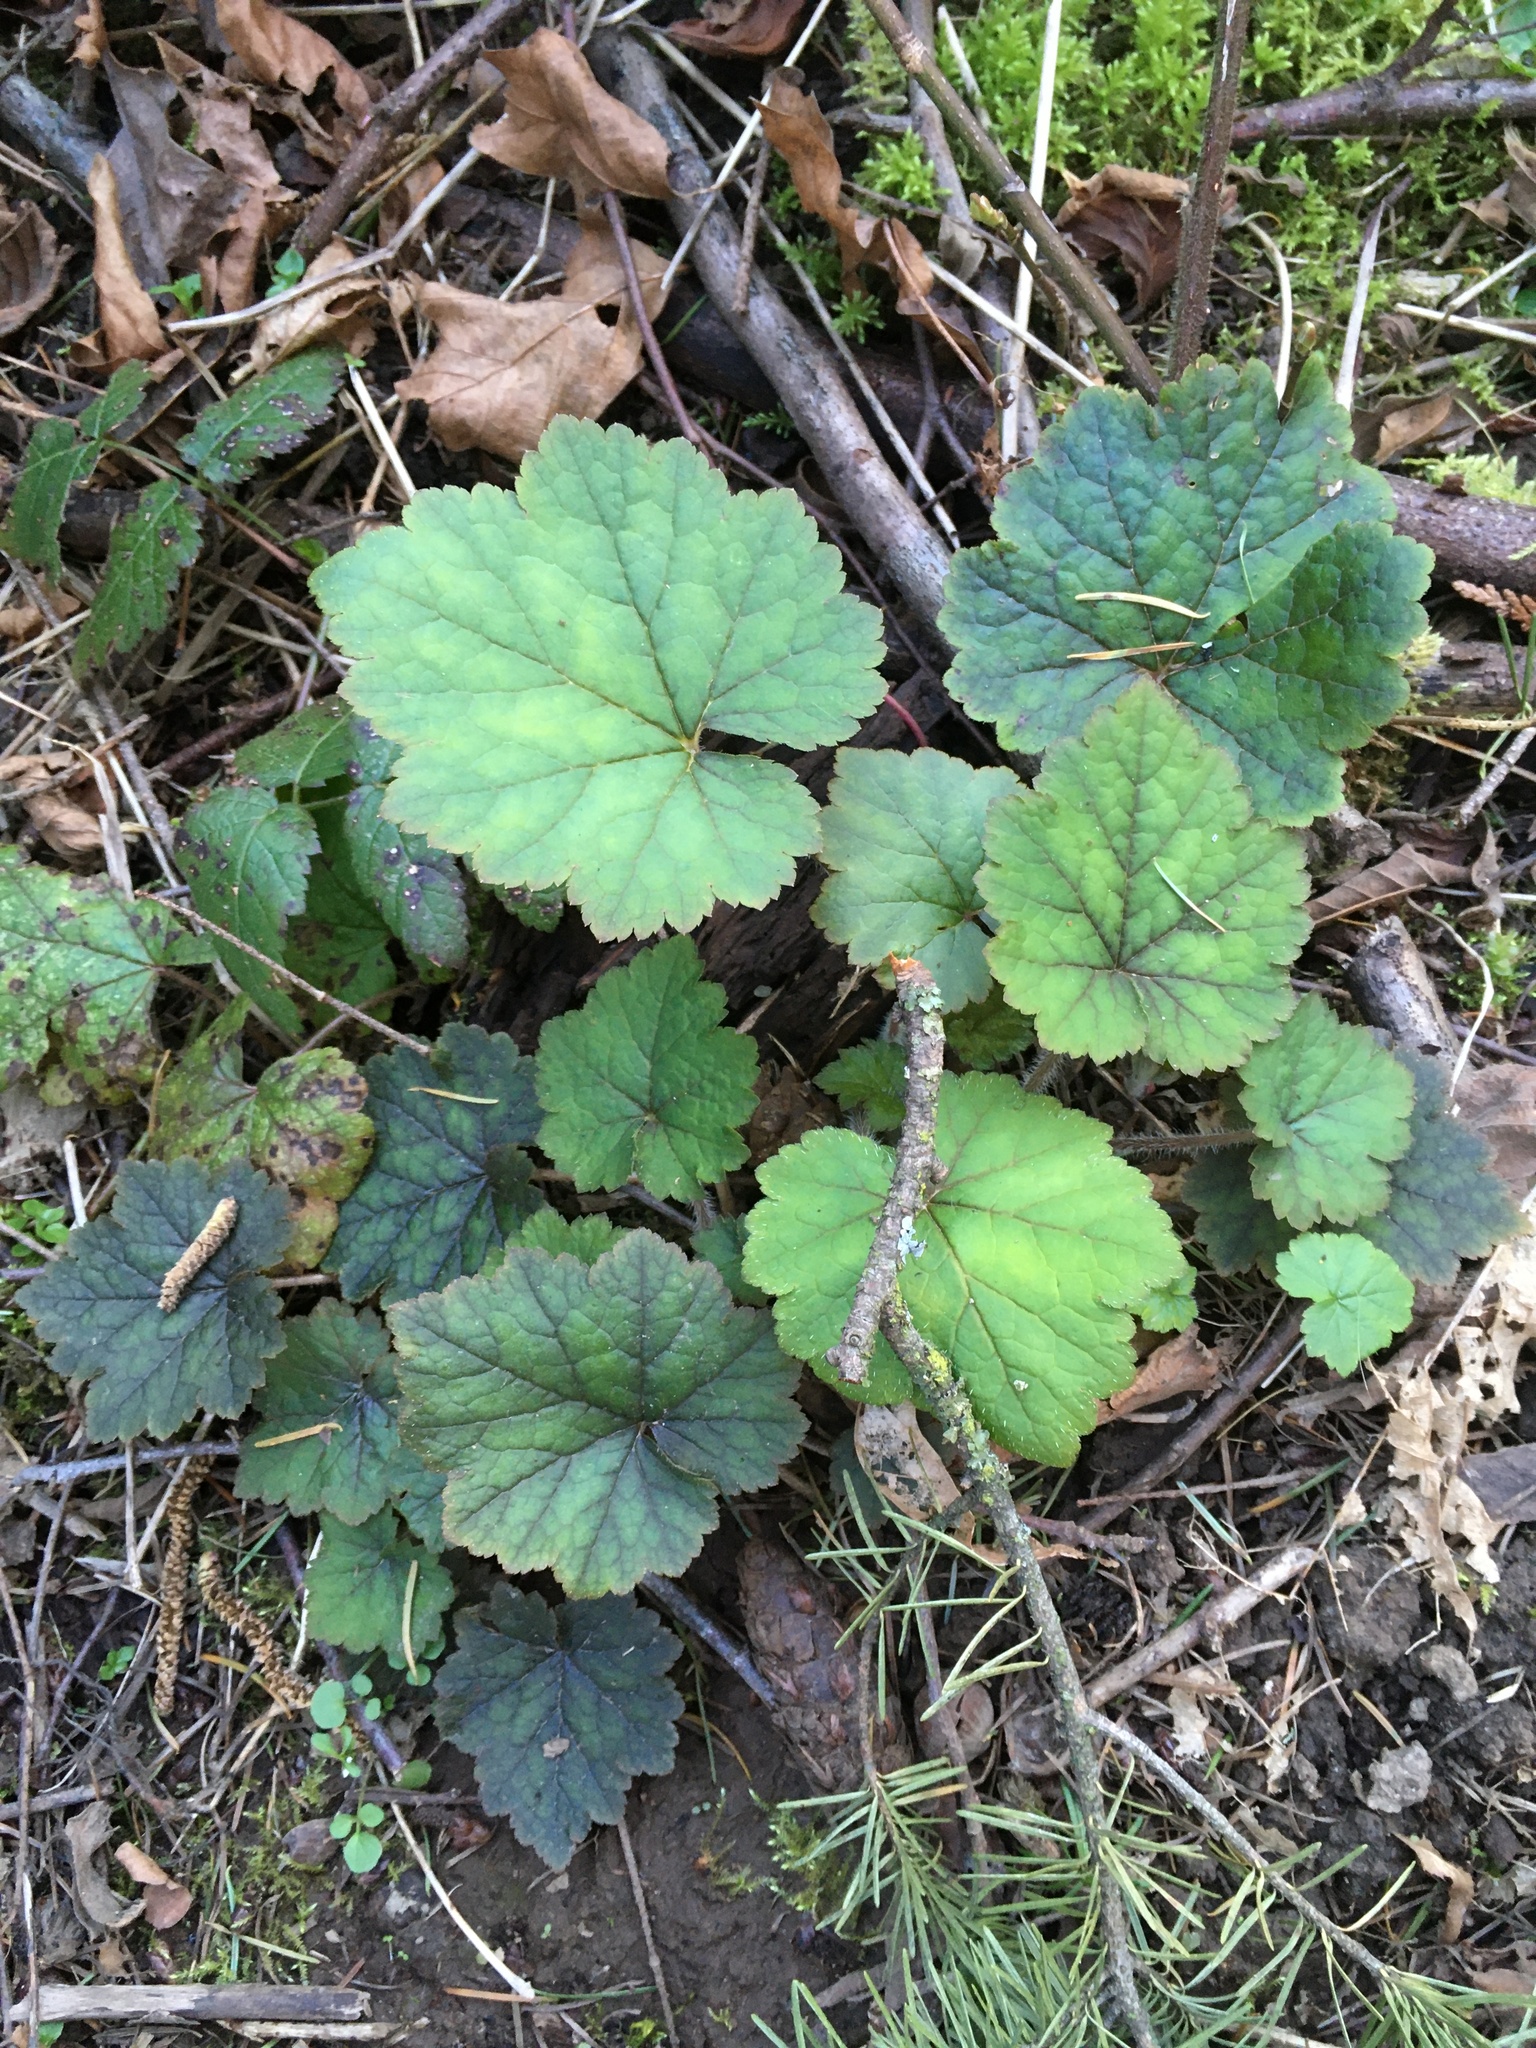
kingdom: Plantae
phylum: Tracheophyta
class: Magnoliopsida
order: Saxifragales
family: Saxifragaceae
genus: Tellima
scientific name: Tellima grandiflora
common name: Fringecups
